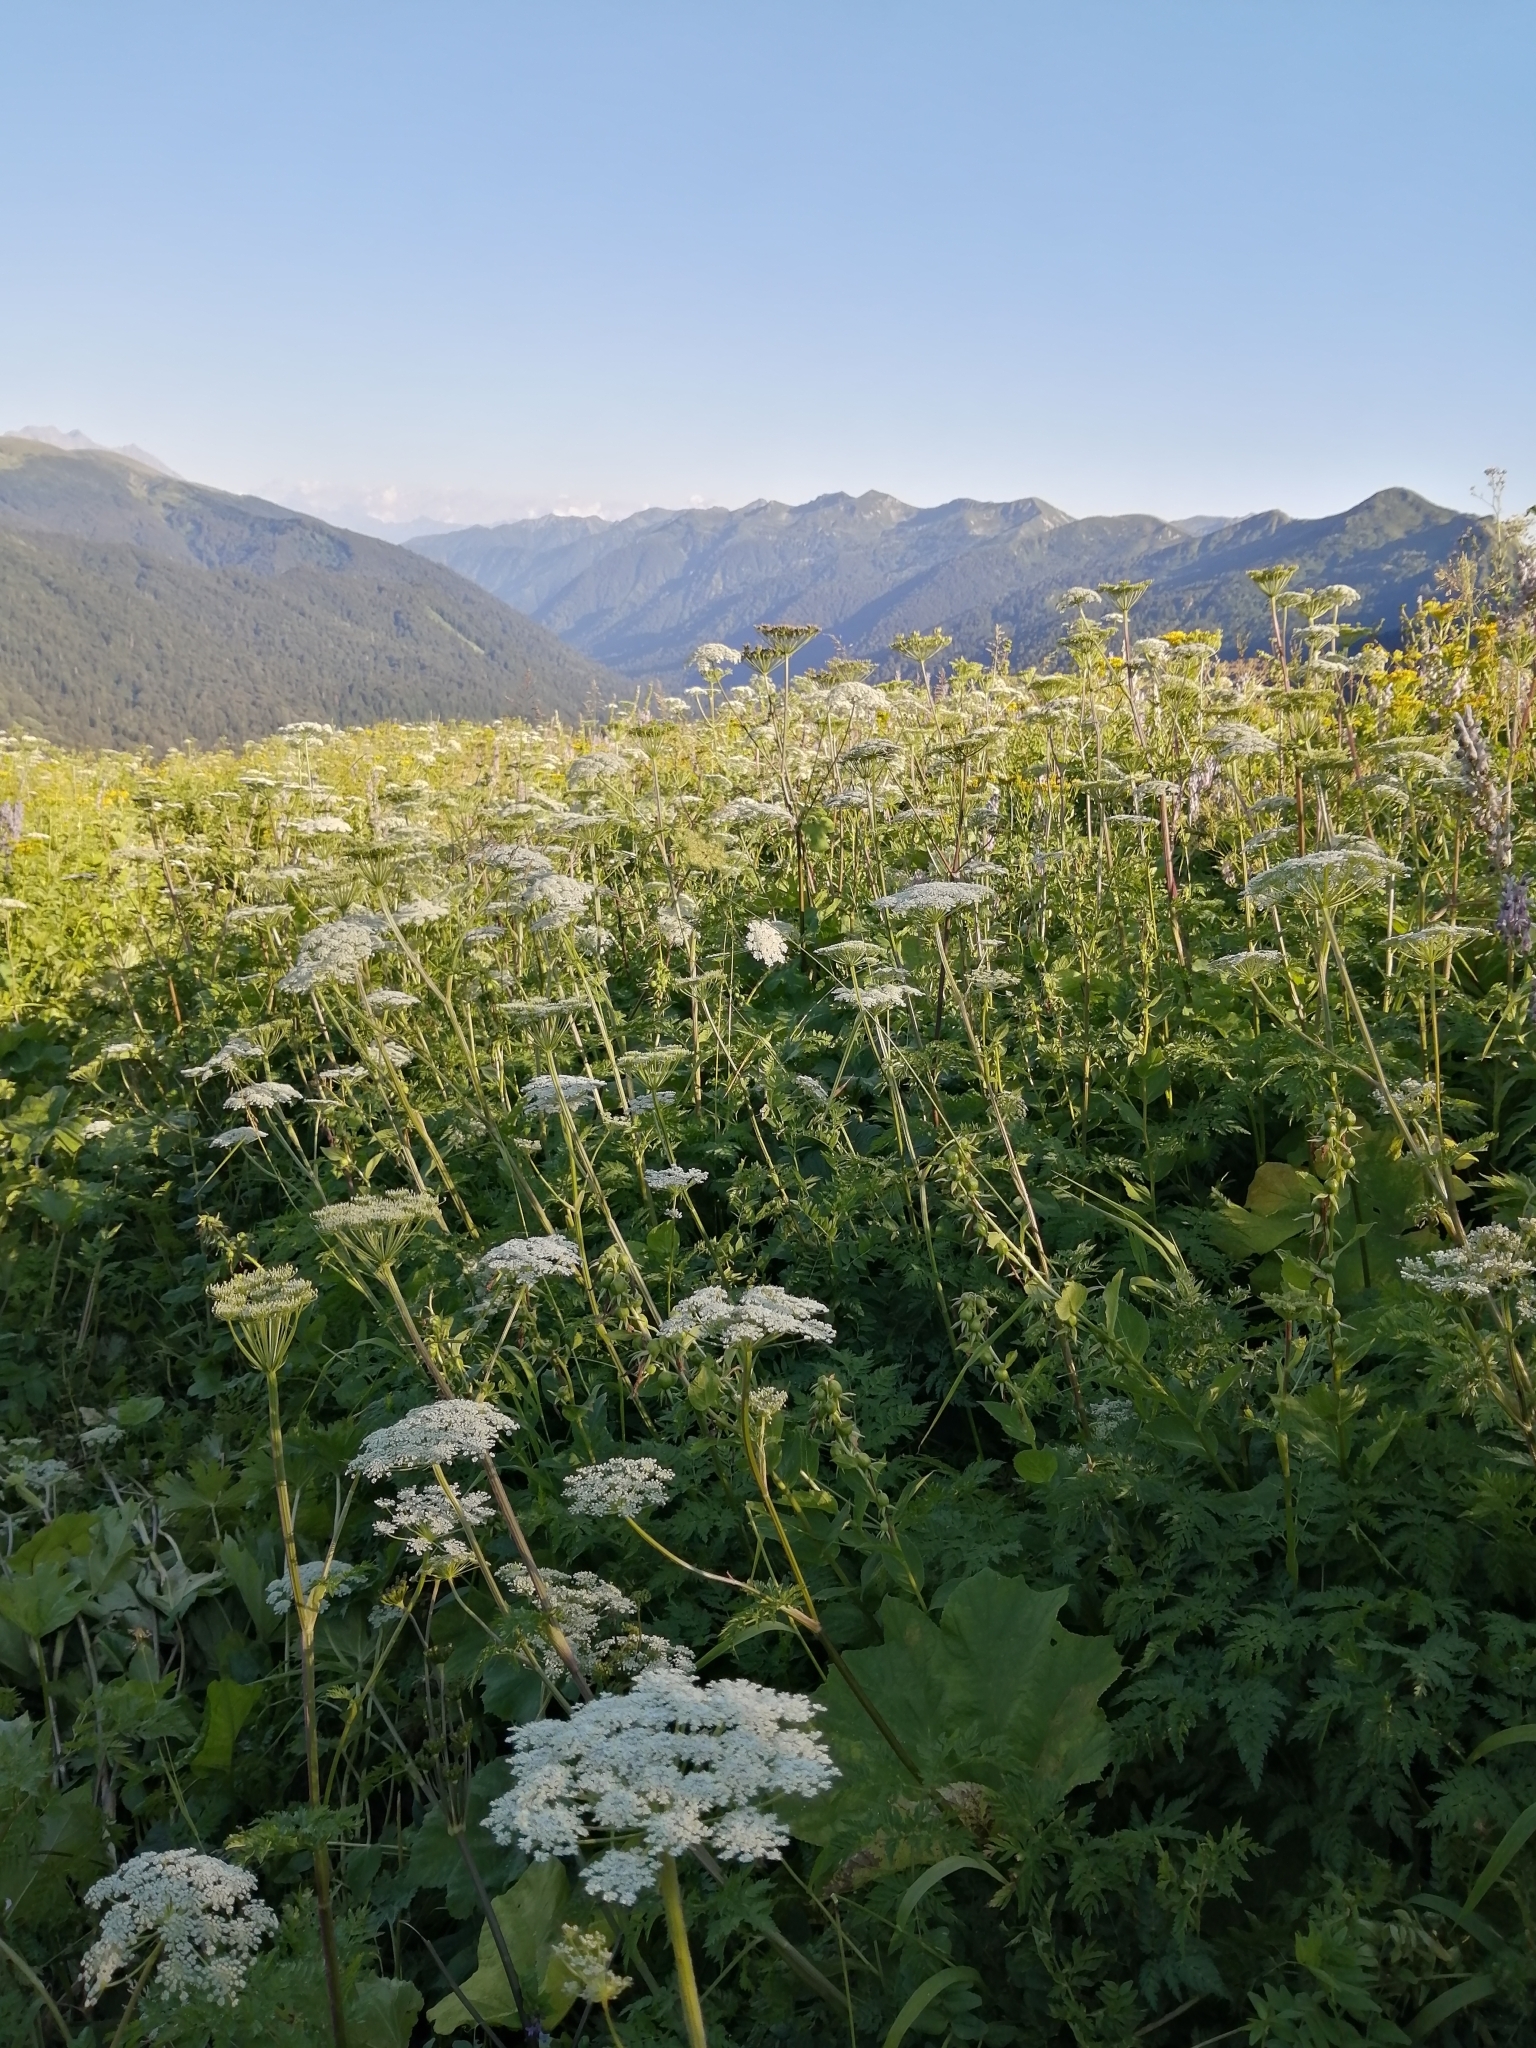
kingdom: Plantae
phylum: Tracheophyta
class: Magnoliopsida
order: Apiales
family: Apiaceae
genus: Selinum
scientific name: Selinum alatum
